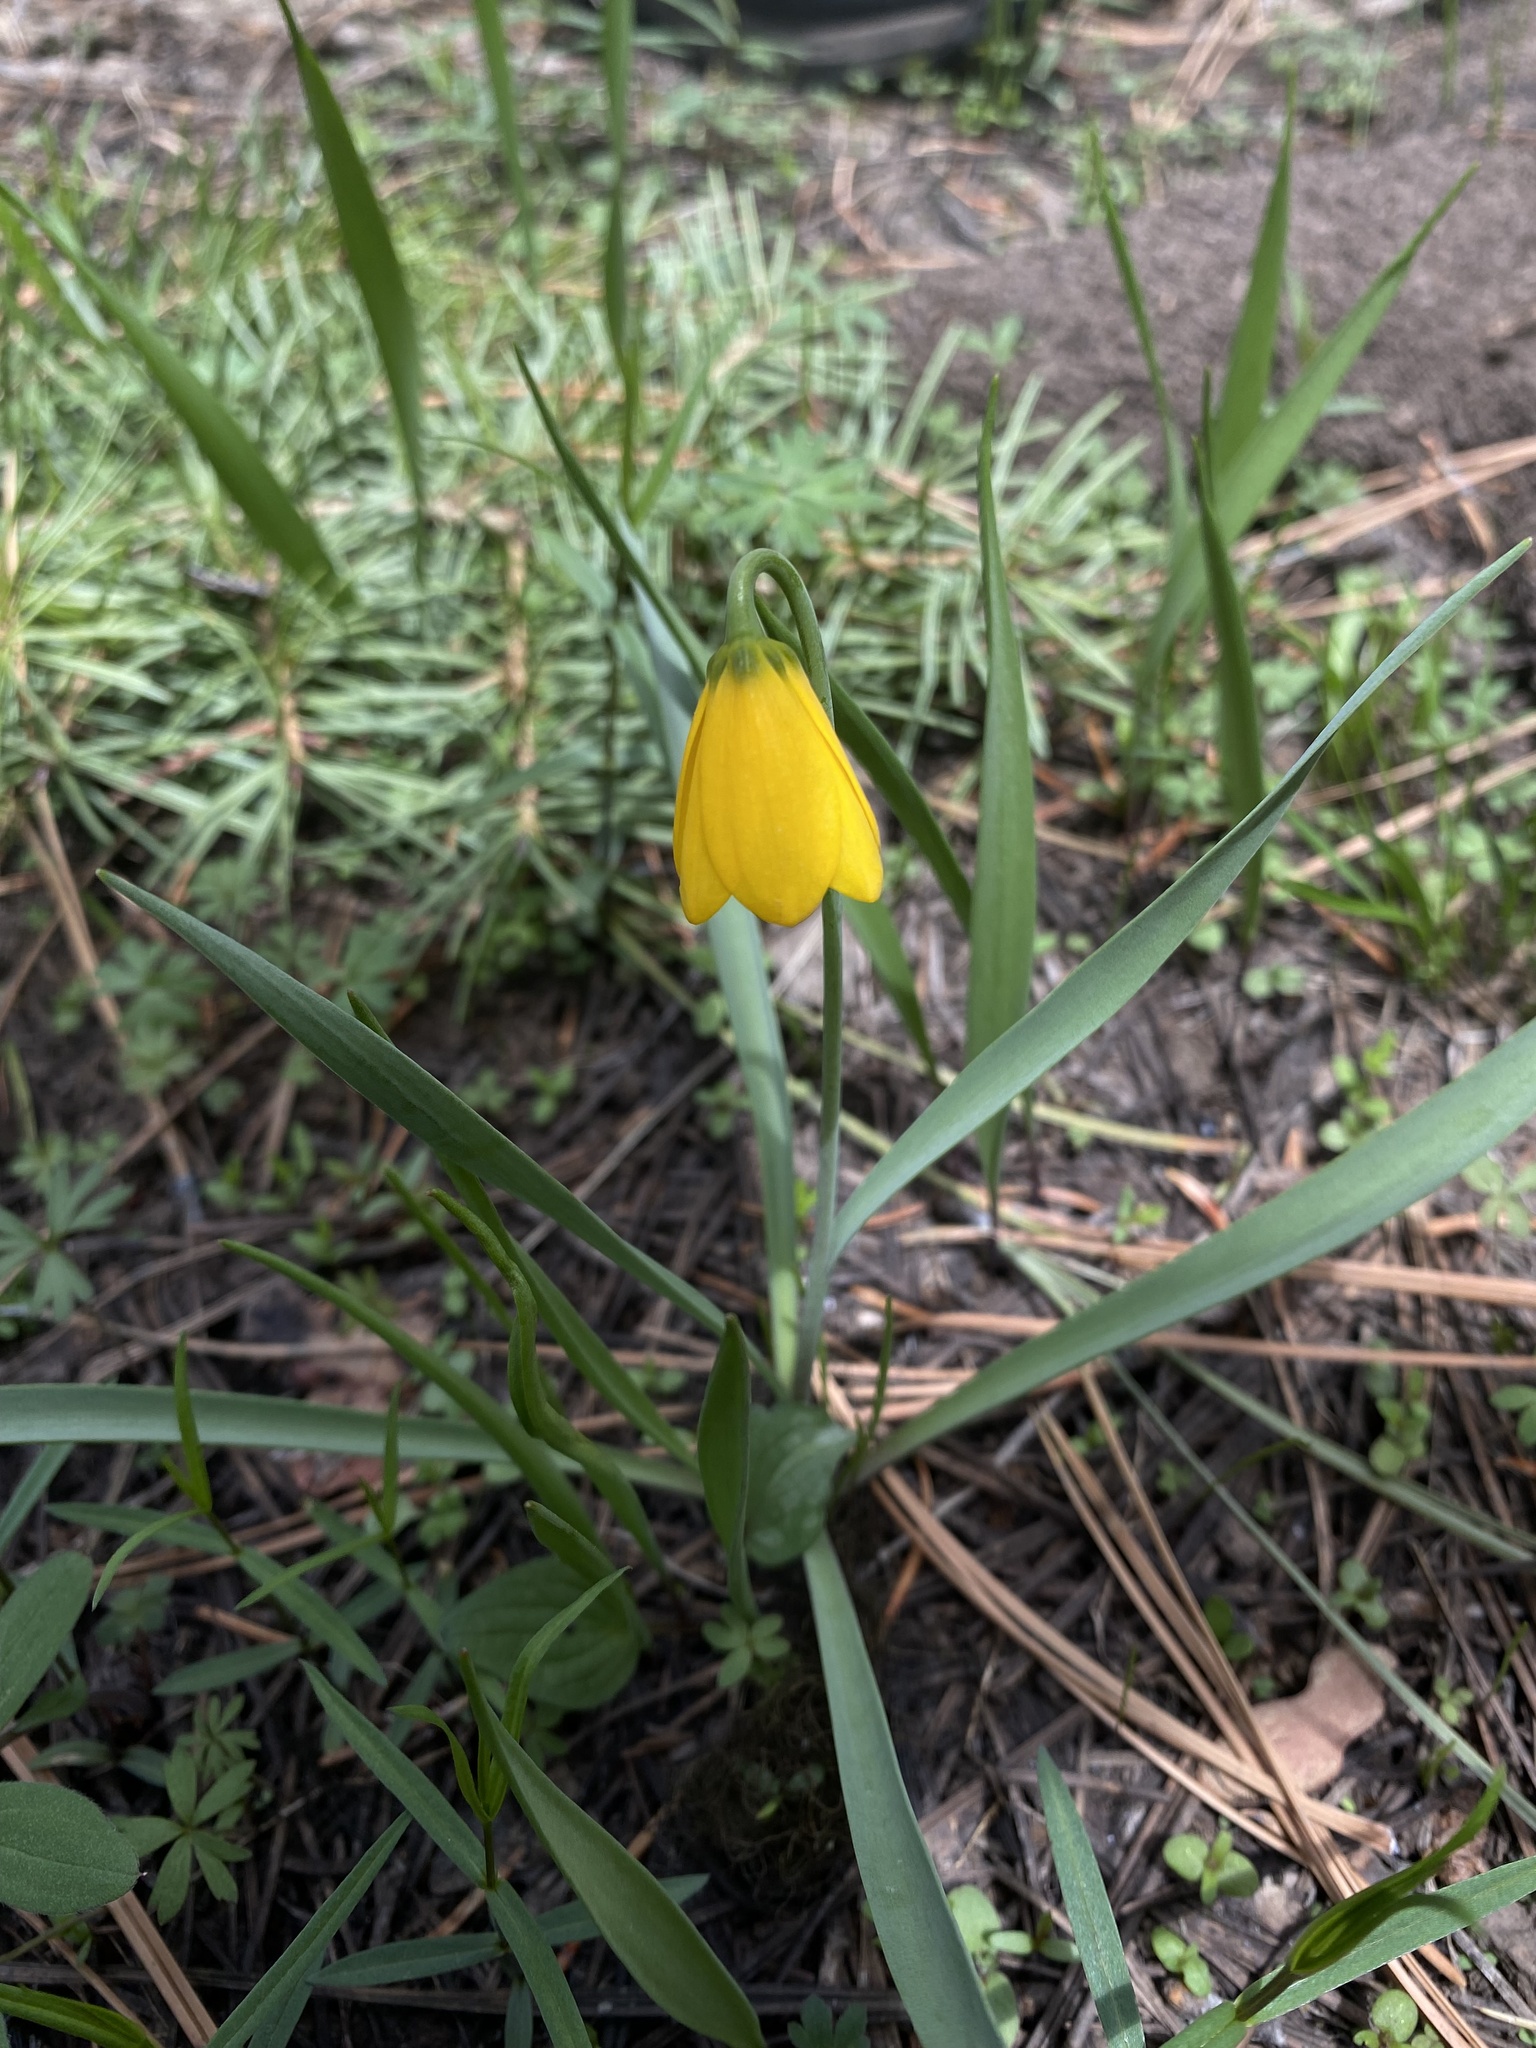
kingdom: Plantae
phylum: Tracheophyta
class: Liliopsida
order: Liliales
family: Liliaceae
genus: Fritillaria
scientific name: Fritillaria pudica
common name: Yellow fritillary
